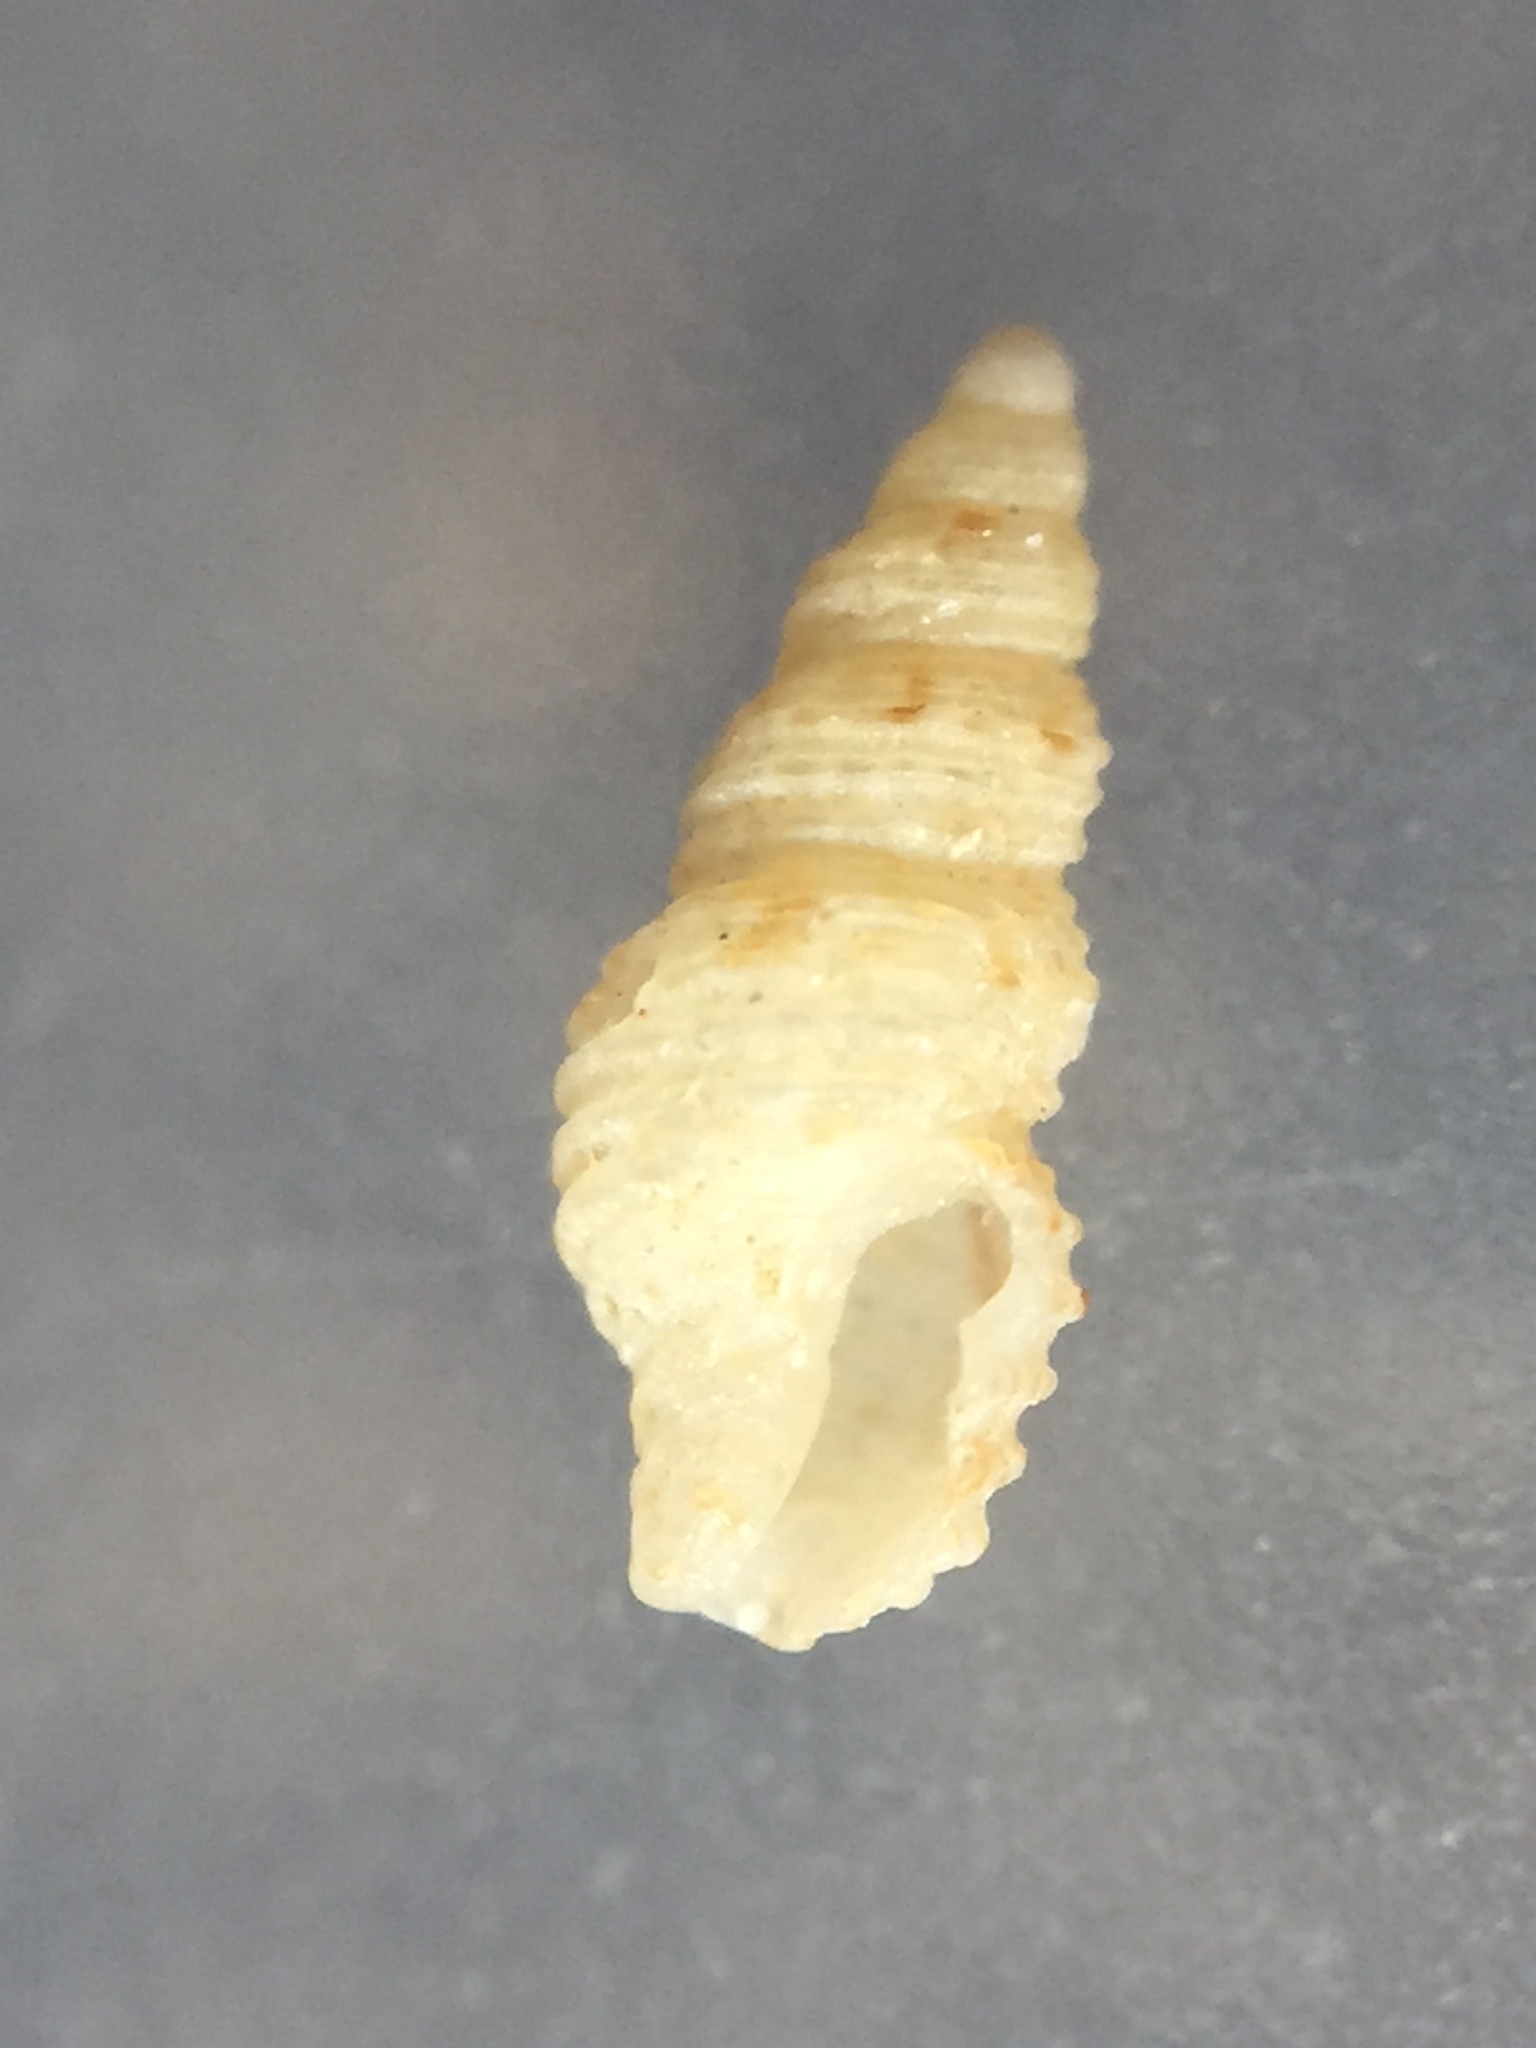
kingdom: Animalia
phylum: Mollusca
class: Gastropoda
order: Neogastropoda
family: Columbellidae
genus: Liratilia
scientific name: Liratilia sinuata
